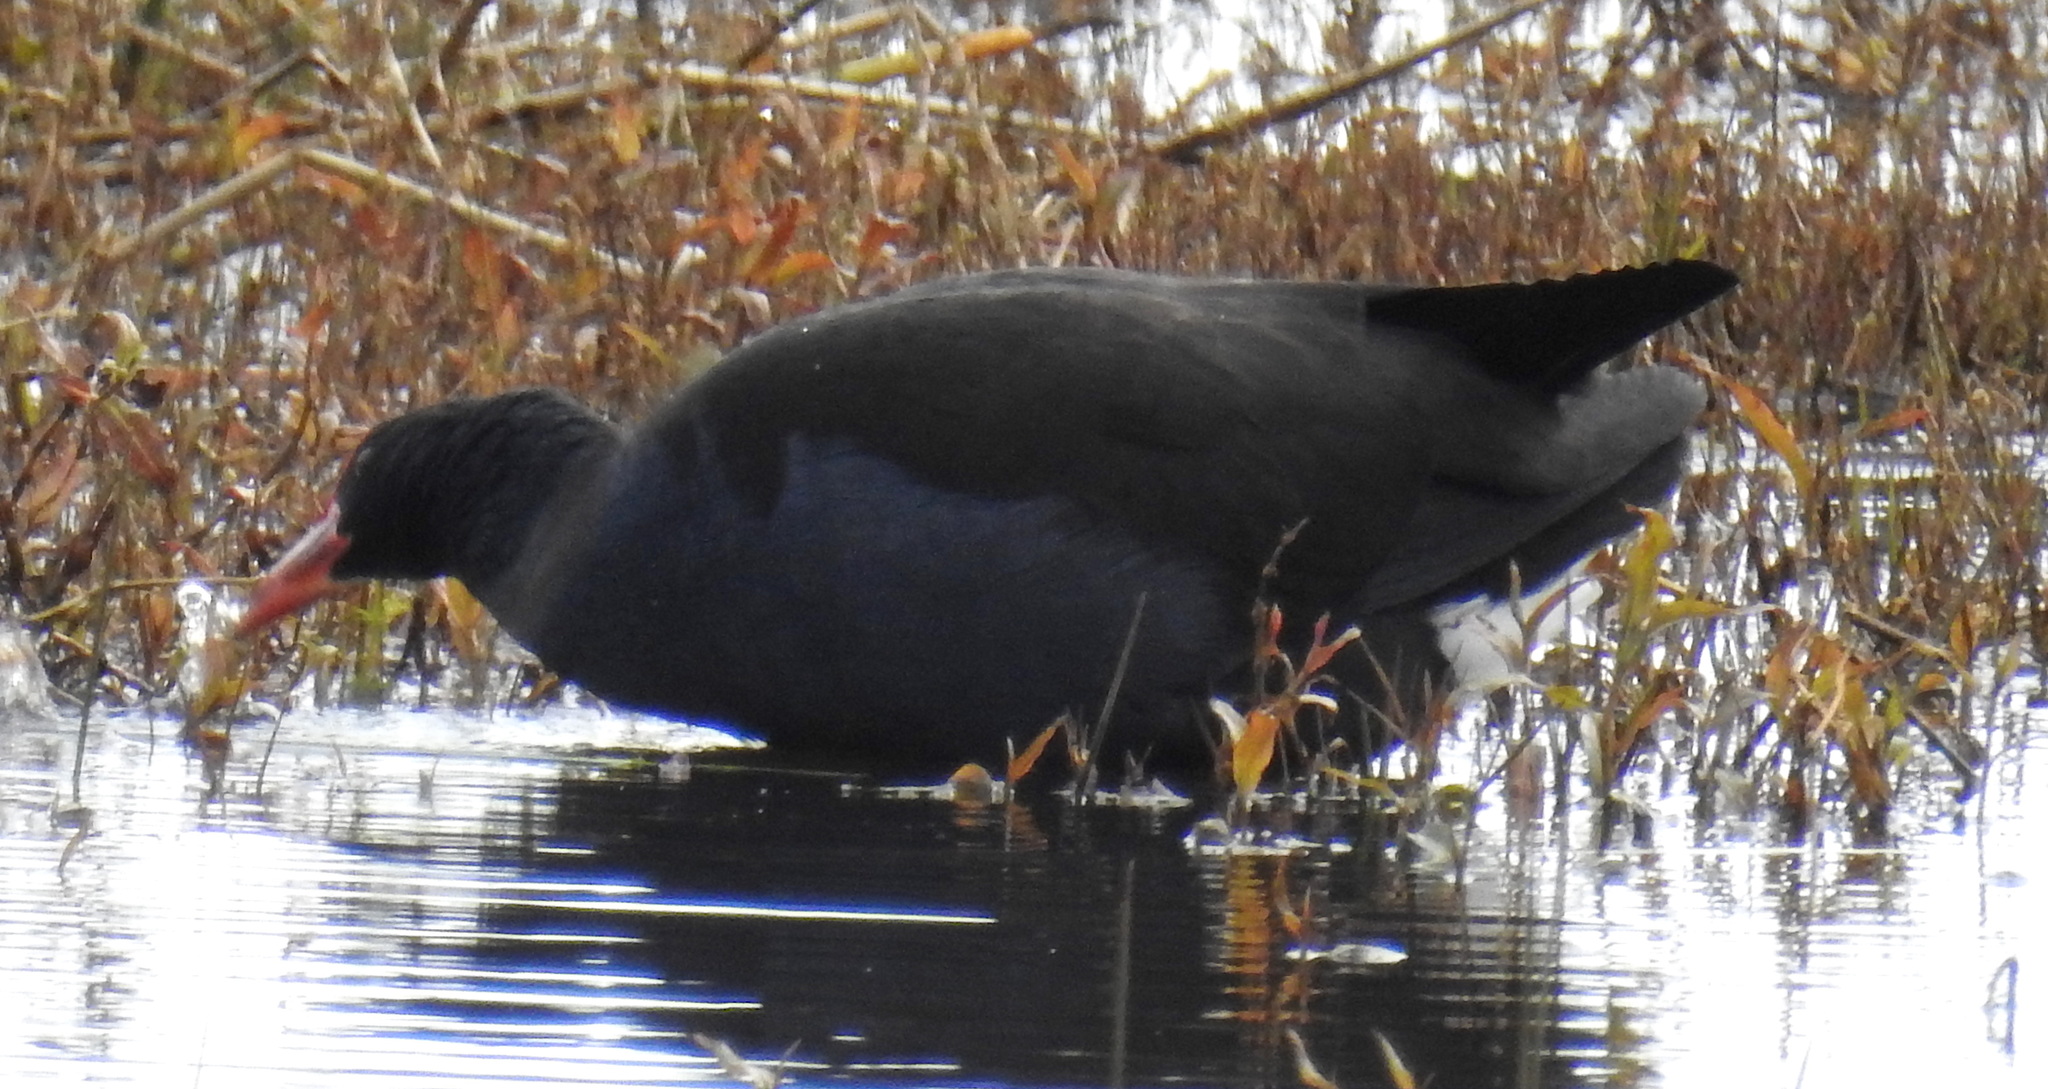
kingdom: Animalia
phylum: Chordata
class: Aves
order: Gruiformes
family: Rallidae
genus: Porphyrio
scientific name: Porphyrio melanotus
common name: Australasian swamphen
